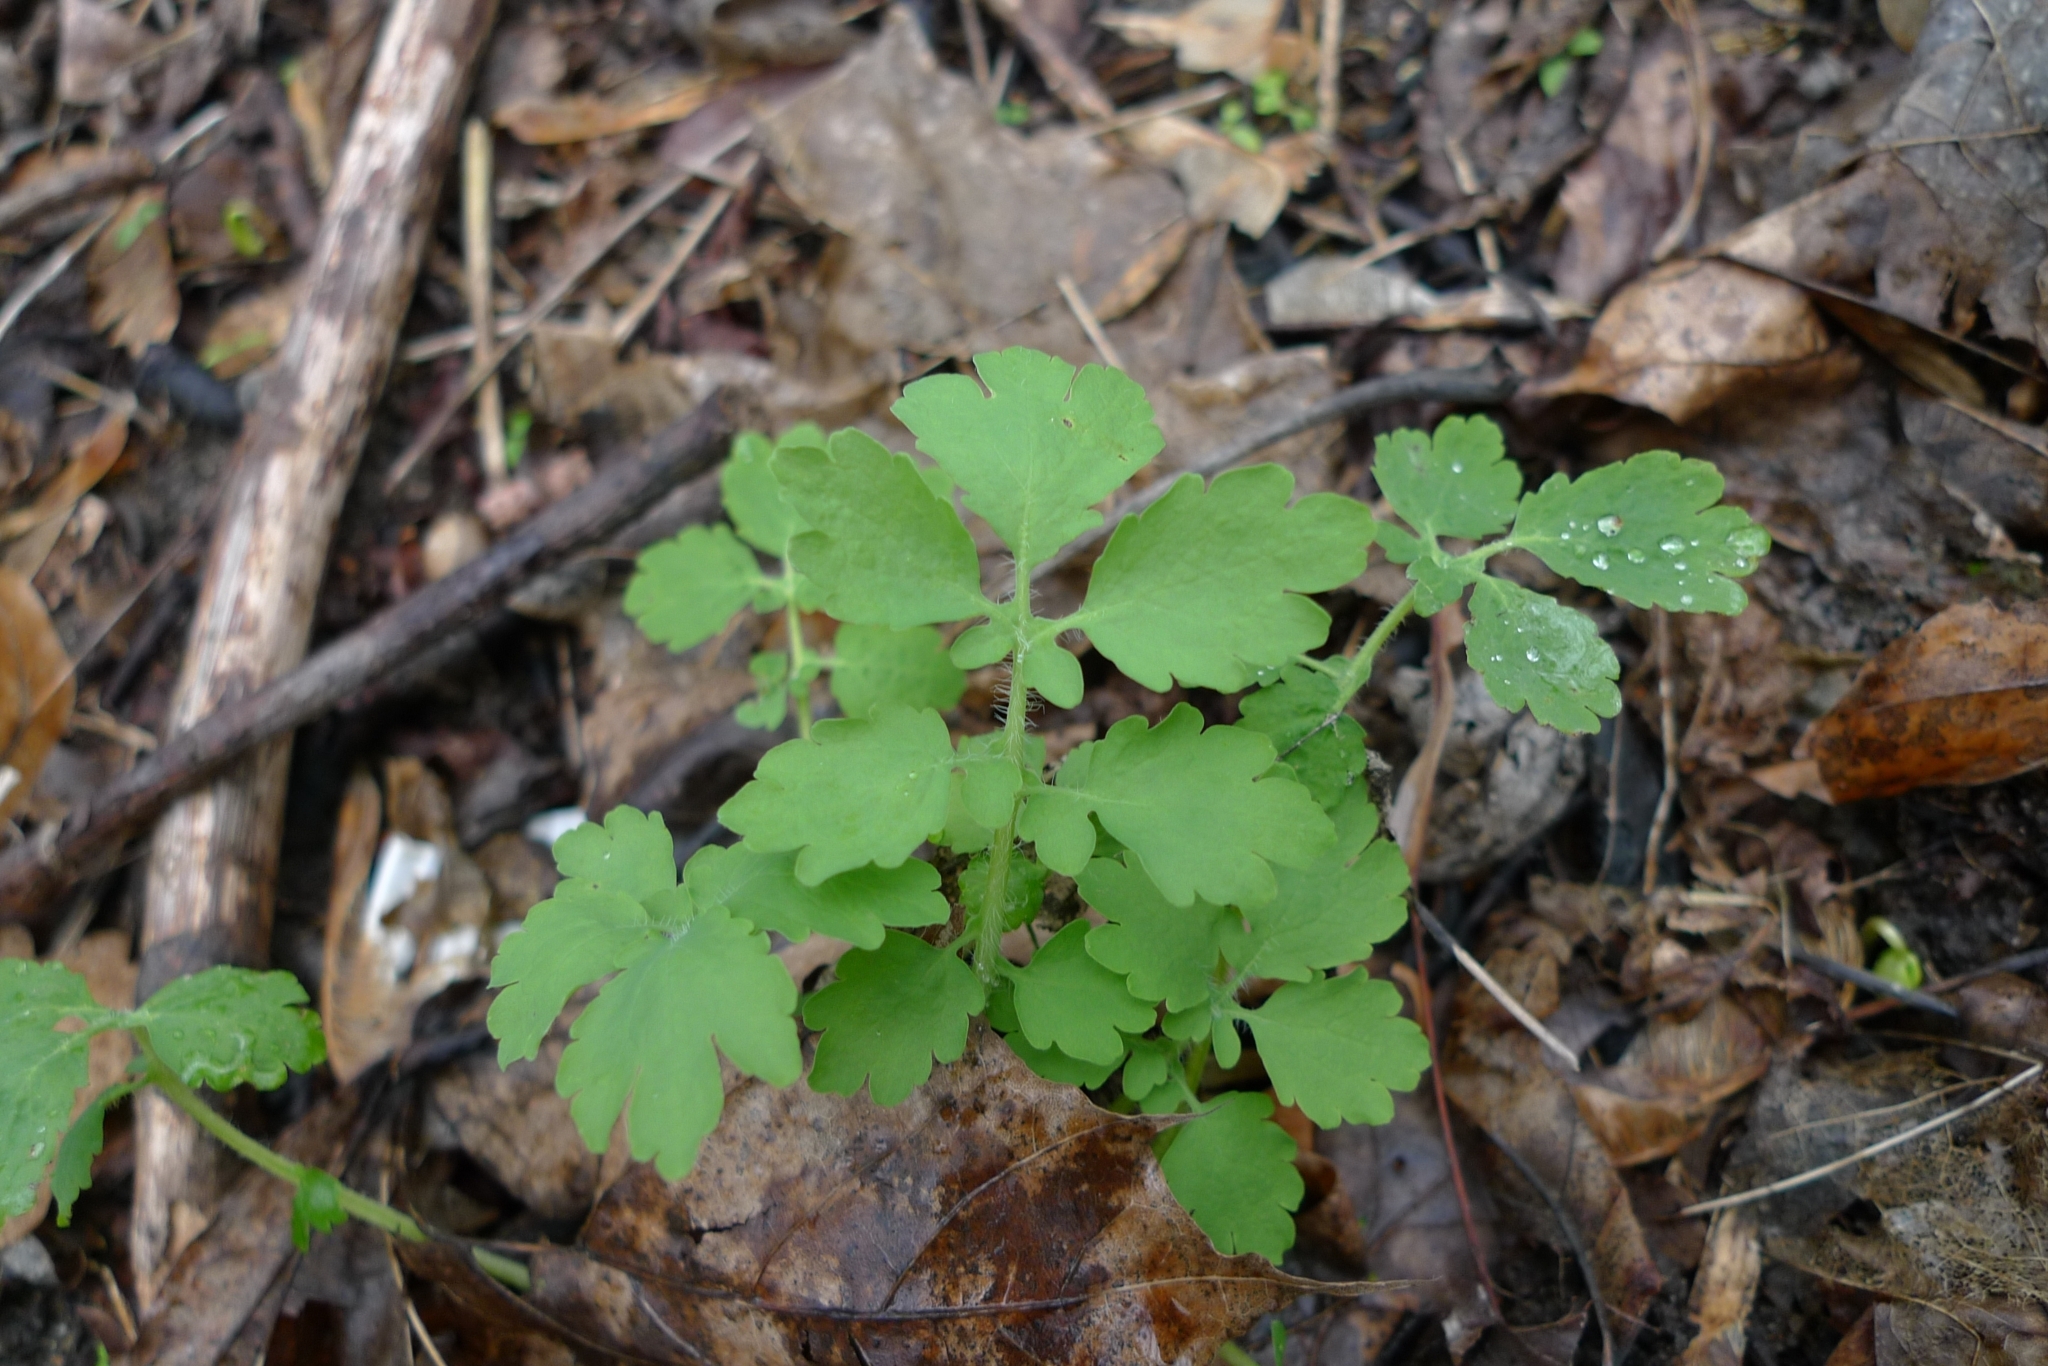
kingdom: Plantae
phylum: Tracheophyta
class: Magnoliopsida
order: Ranunculales
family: Papaveraceae
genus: Chelidonium
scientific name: Chelidonium majus
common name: Greater celandine
